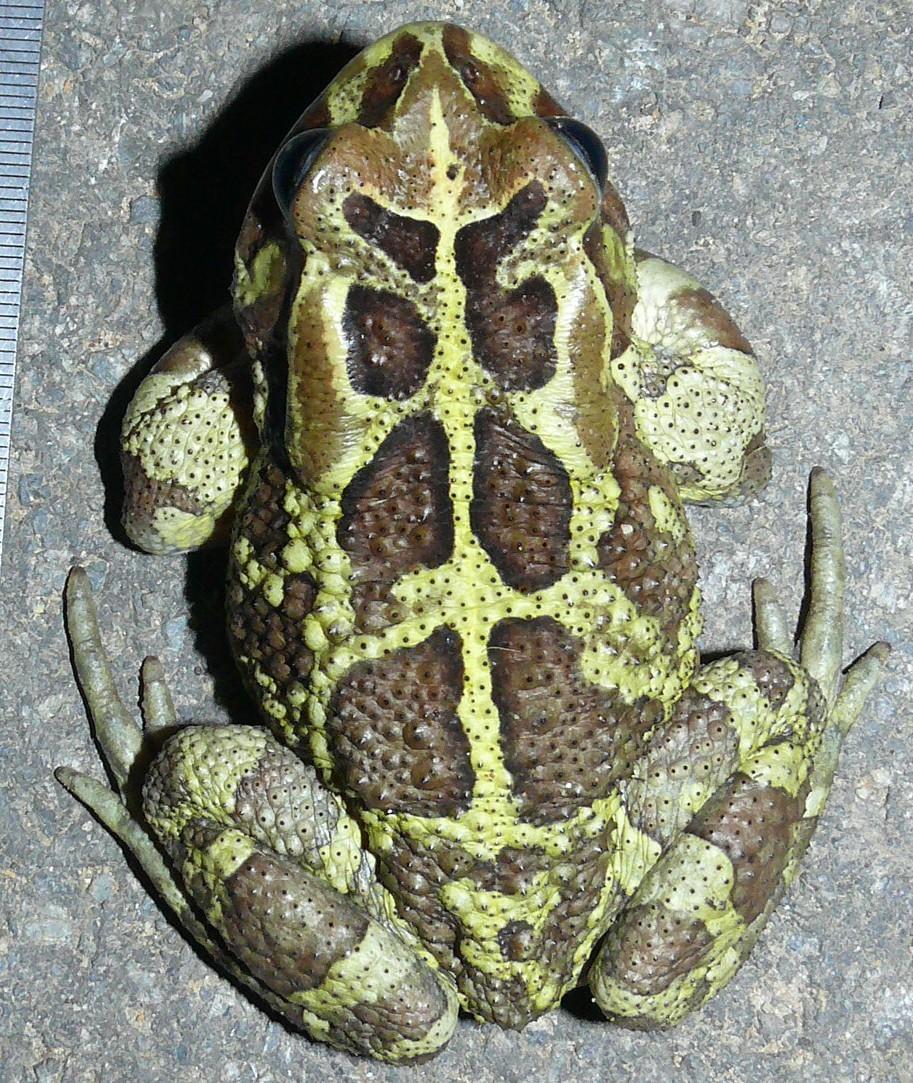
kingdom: Animalia
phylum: Chordata
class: Amphibia
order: Anura
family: Bufonidae
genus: Sclerophrys
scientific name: Sclerophrys pantherina
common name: Panther toad
